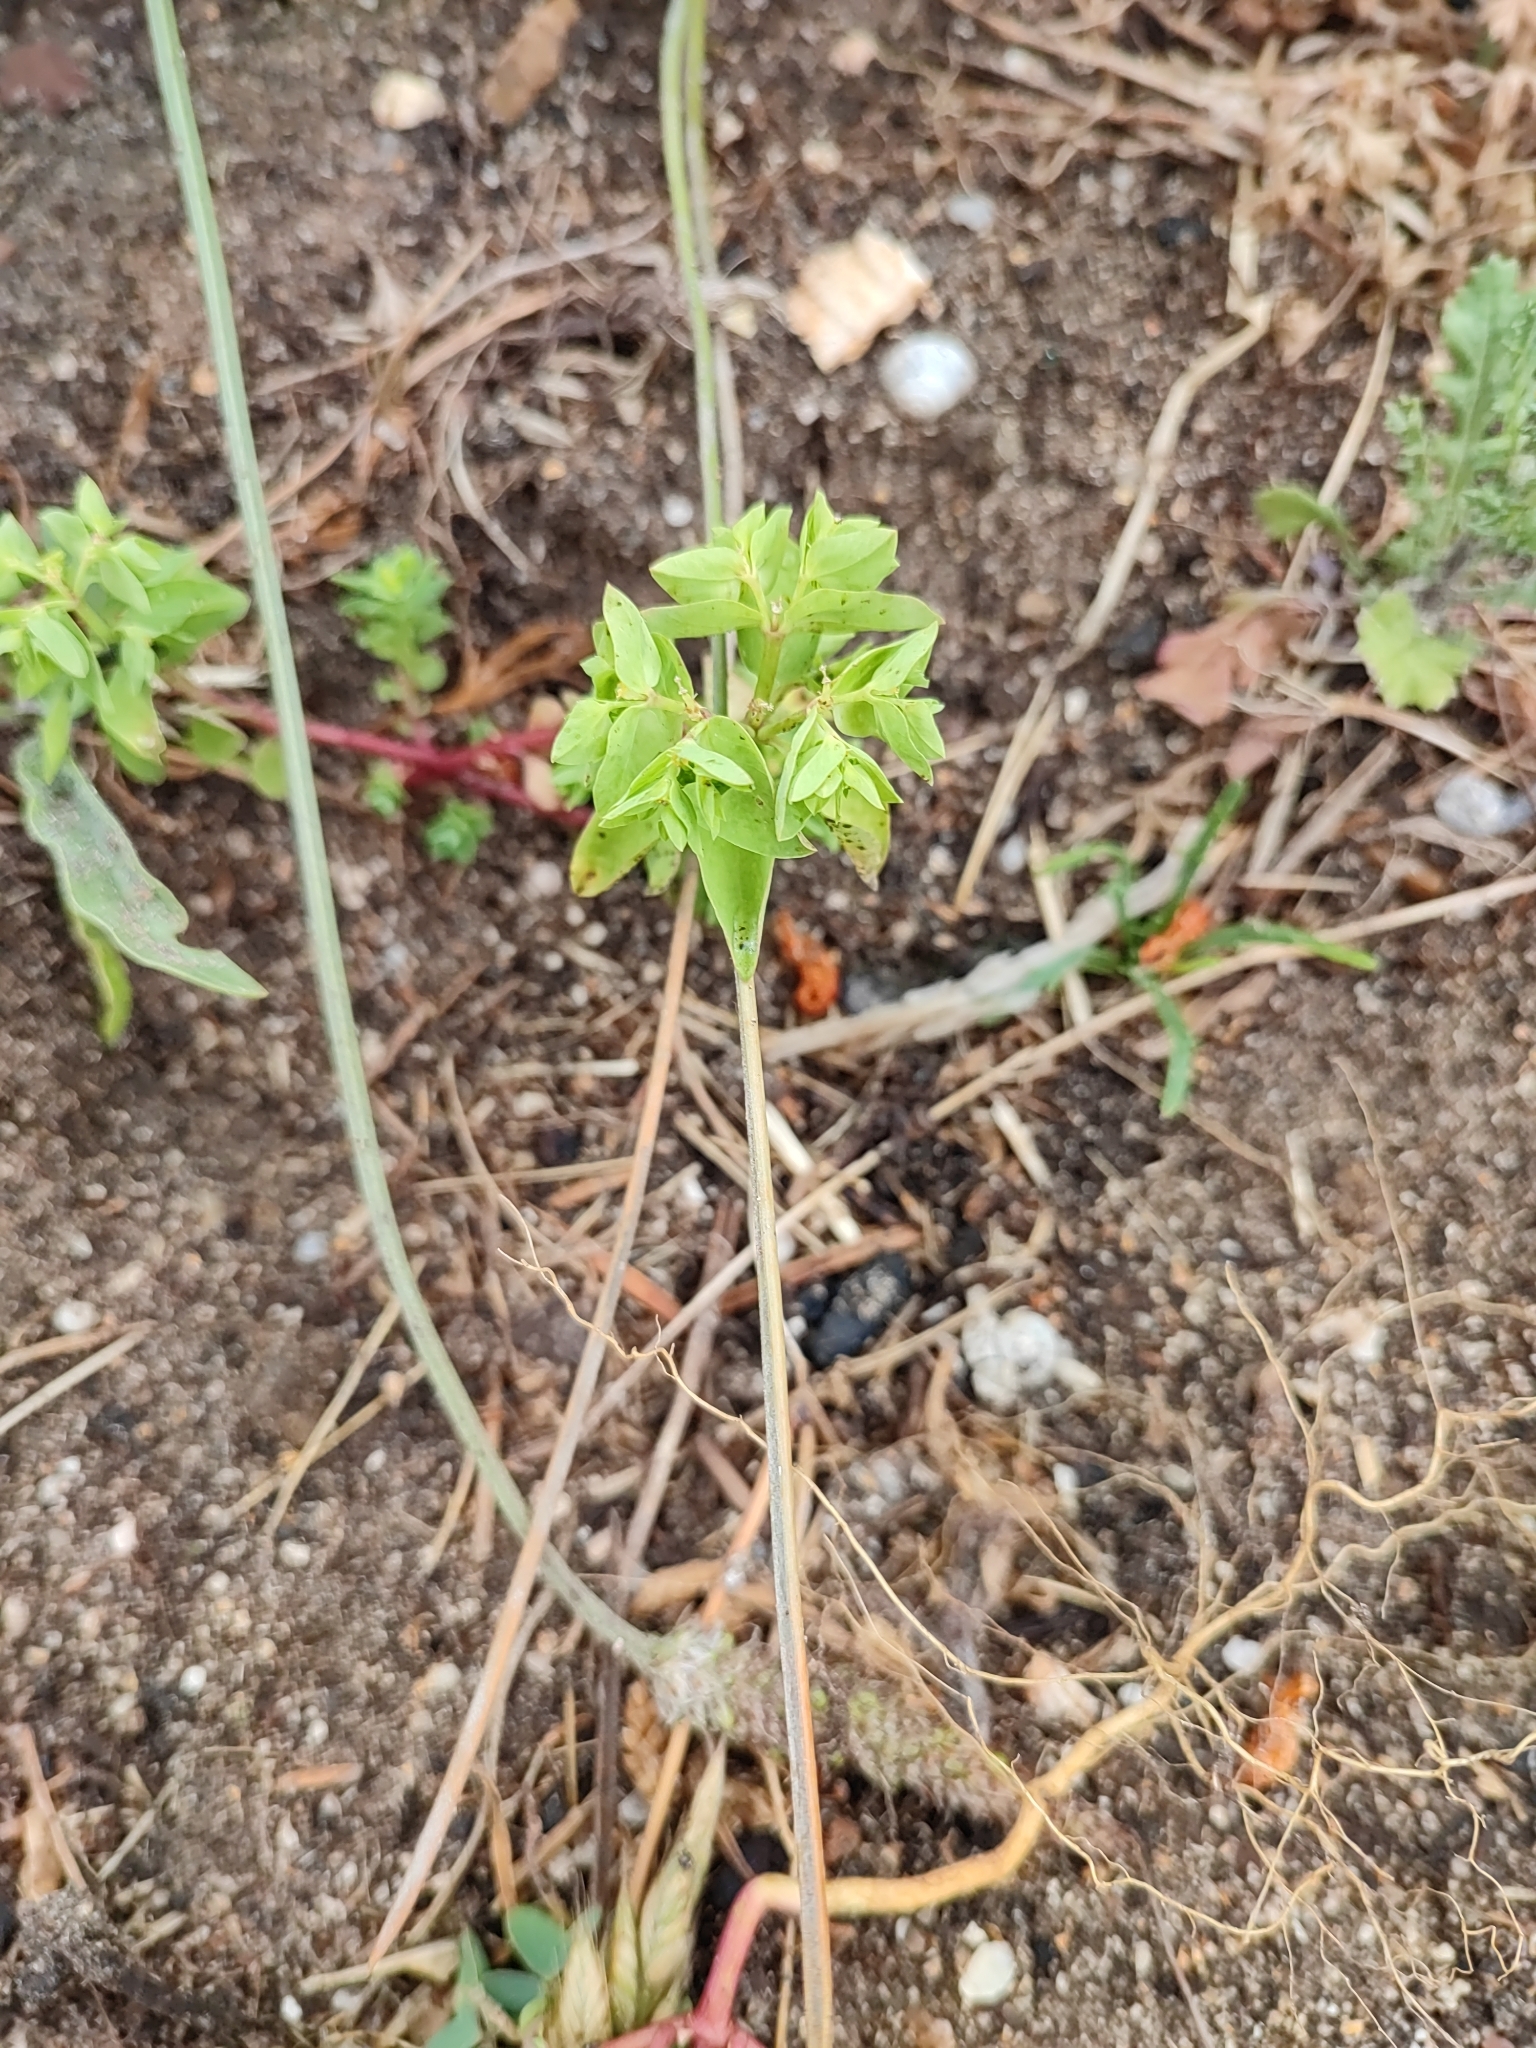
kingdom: Plantae
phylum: Tracheophyta
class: Magnoliopsida
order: Malpighiales
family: Euphorbiaceae
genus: Euphorbia
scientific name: Euphorbia peplus
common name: Petty spurge
